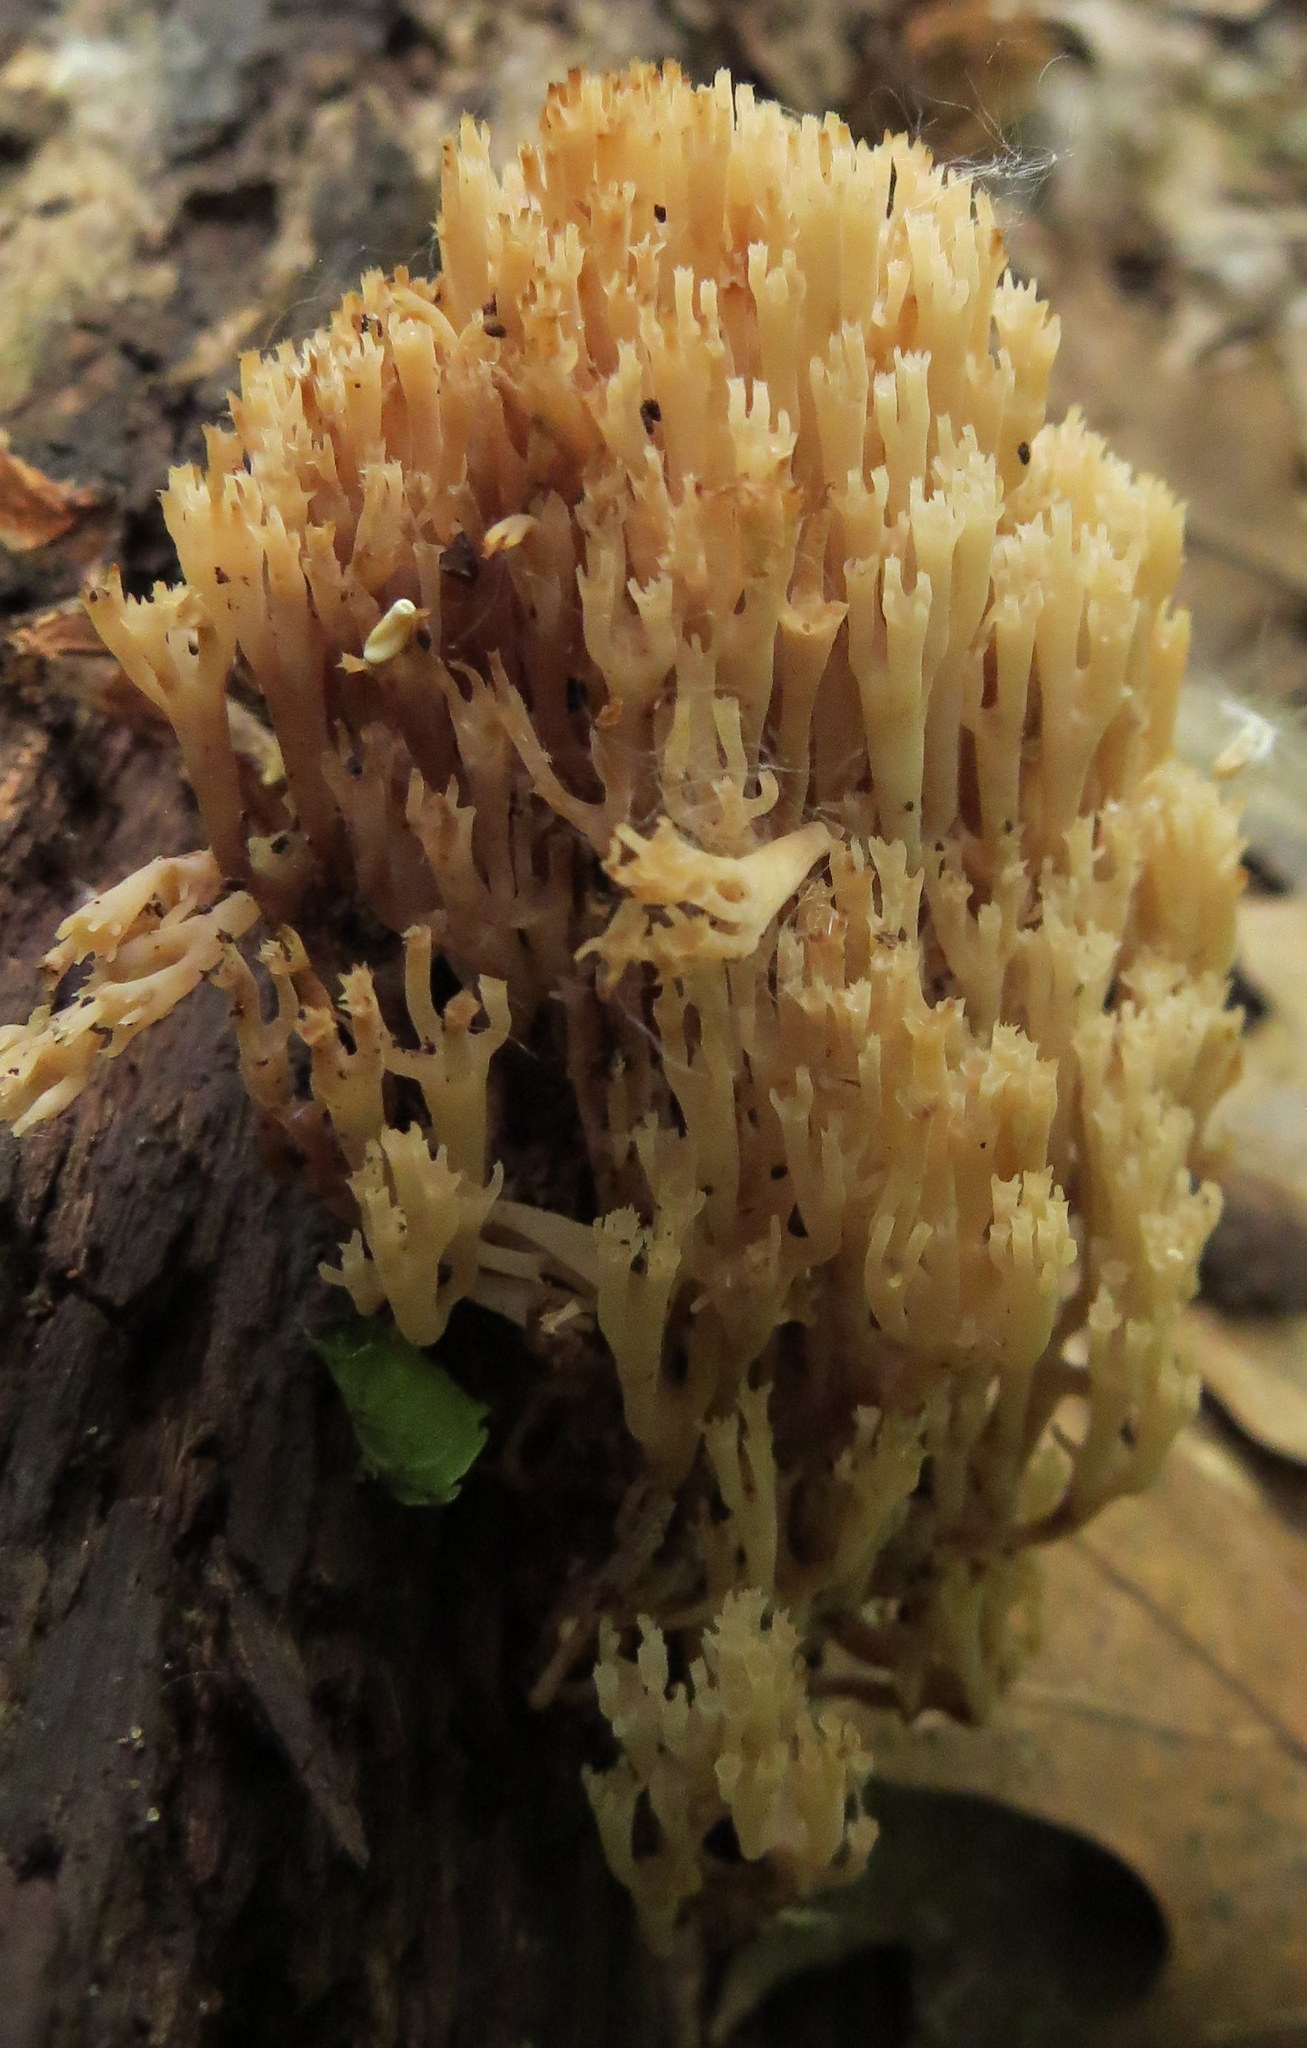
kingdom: Fungi
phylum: Basidiomycota
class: Agaricomycetes
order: Russulales
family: Auriscalpiaceae
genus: Artomyces
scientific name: Artomyces pyxidatus
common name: Crown-tipped coral fungus
